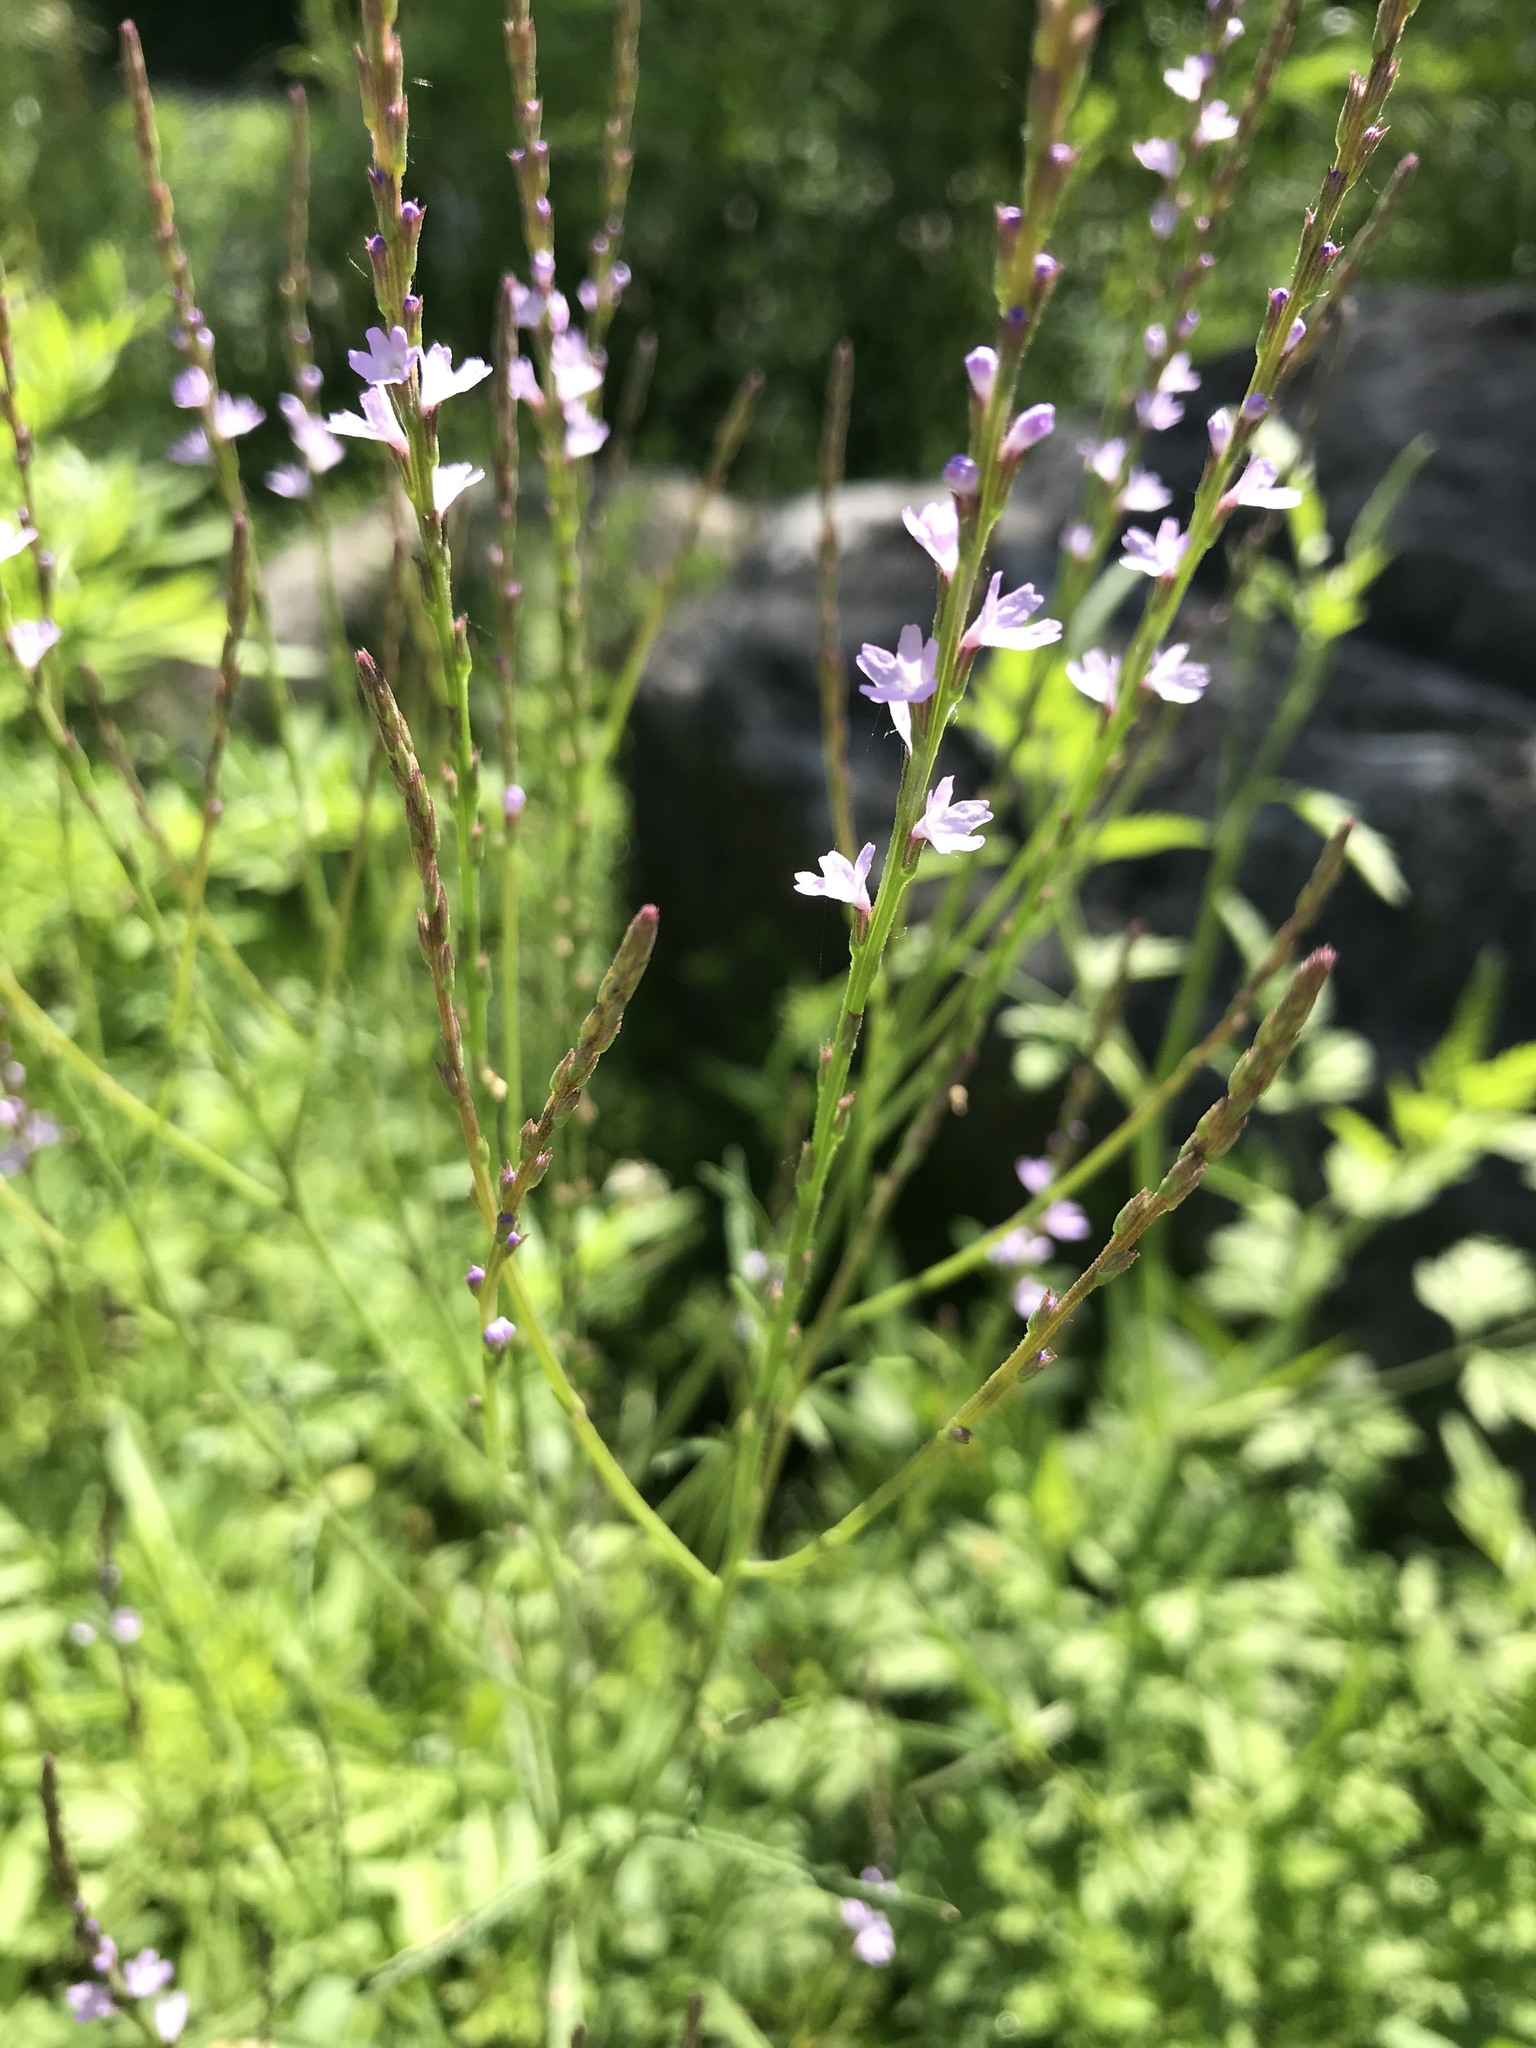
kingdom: Plantae
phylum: Tracheophyta
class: Magnoliopsida
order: Lamiales
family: Verbenaceae
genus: Verbena
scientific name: Verbena halei
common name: Texas vervain
